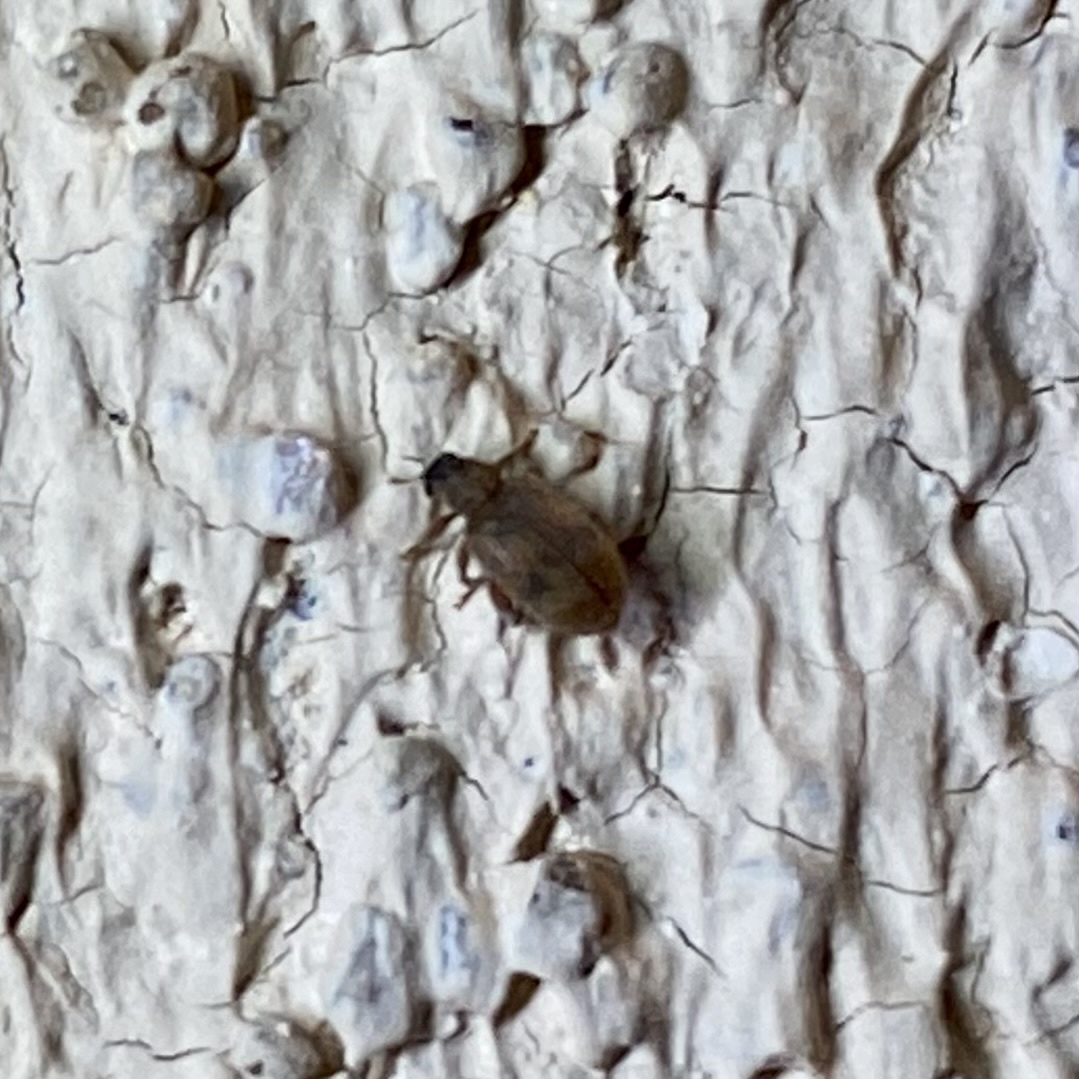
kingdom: Animalia
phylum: Arthropoda
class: Insecta
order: Coleoptera
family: Curculionidae
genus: Orchestes
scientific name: Orchestes steppensis
